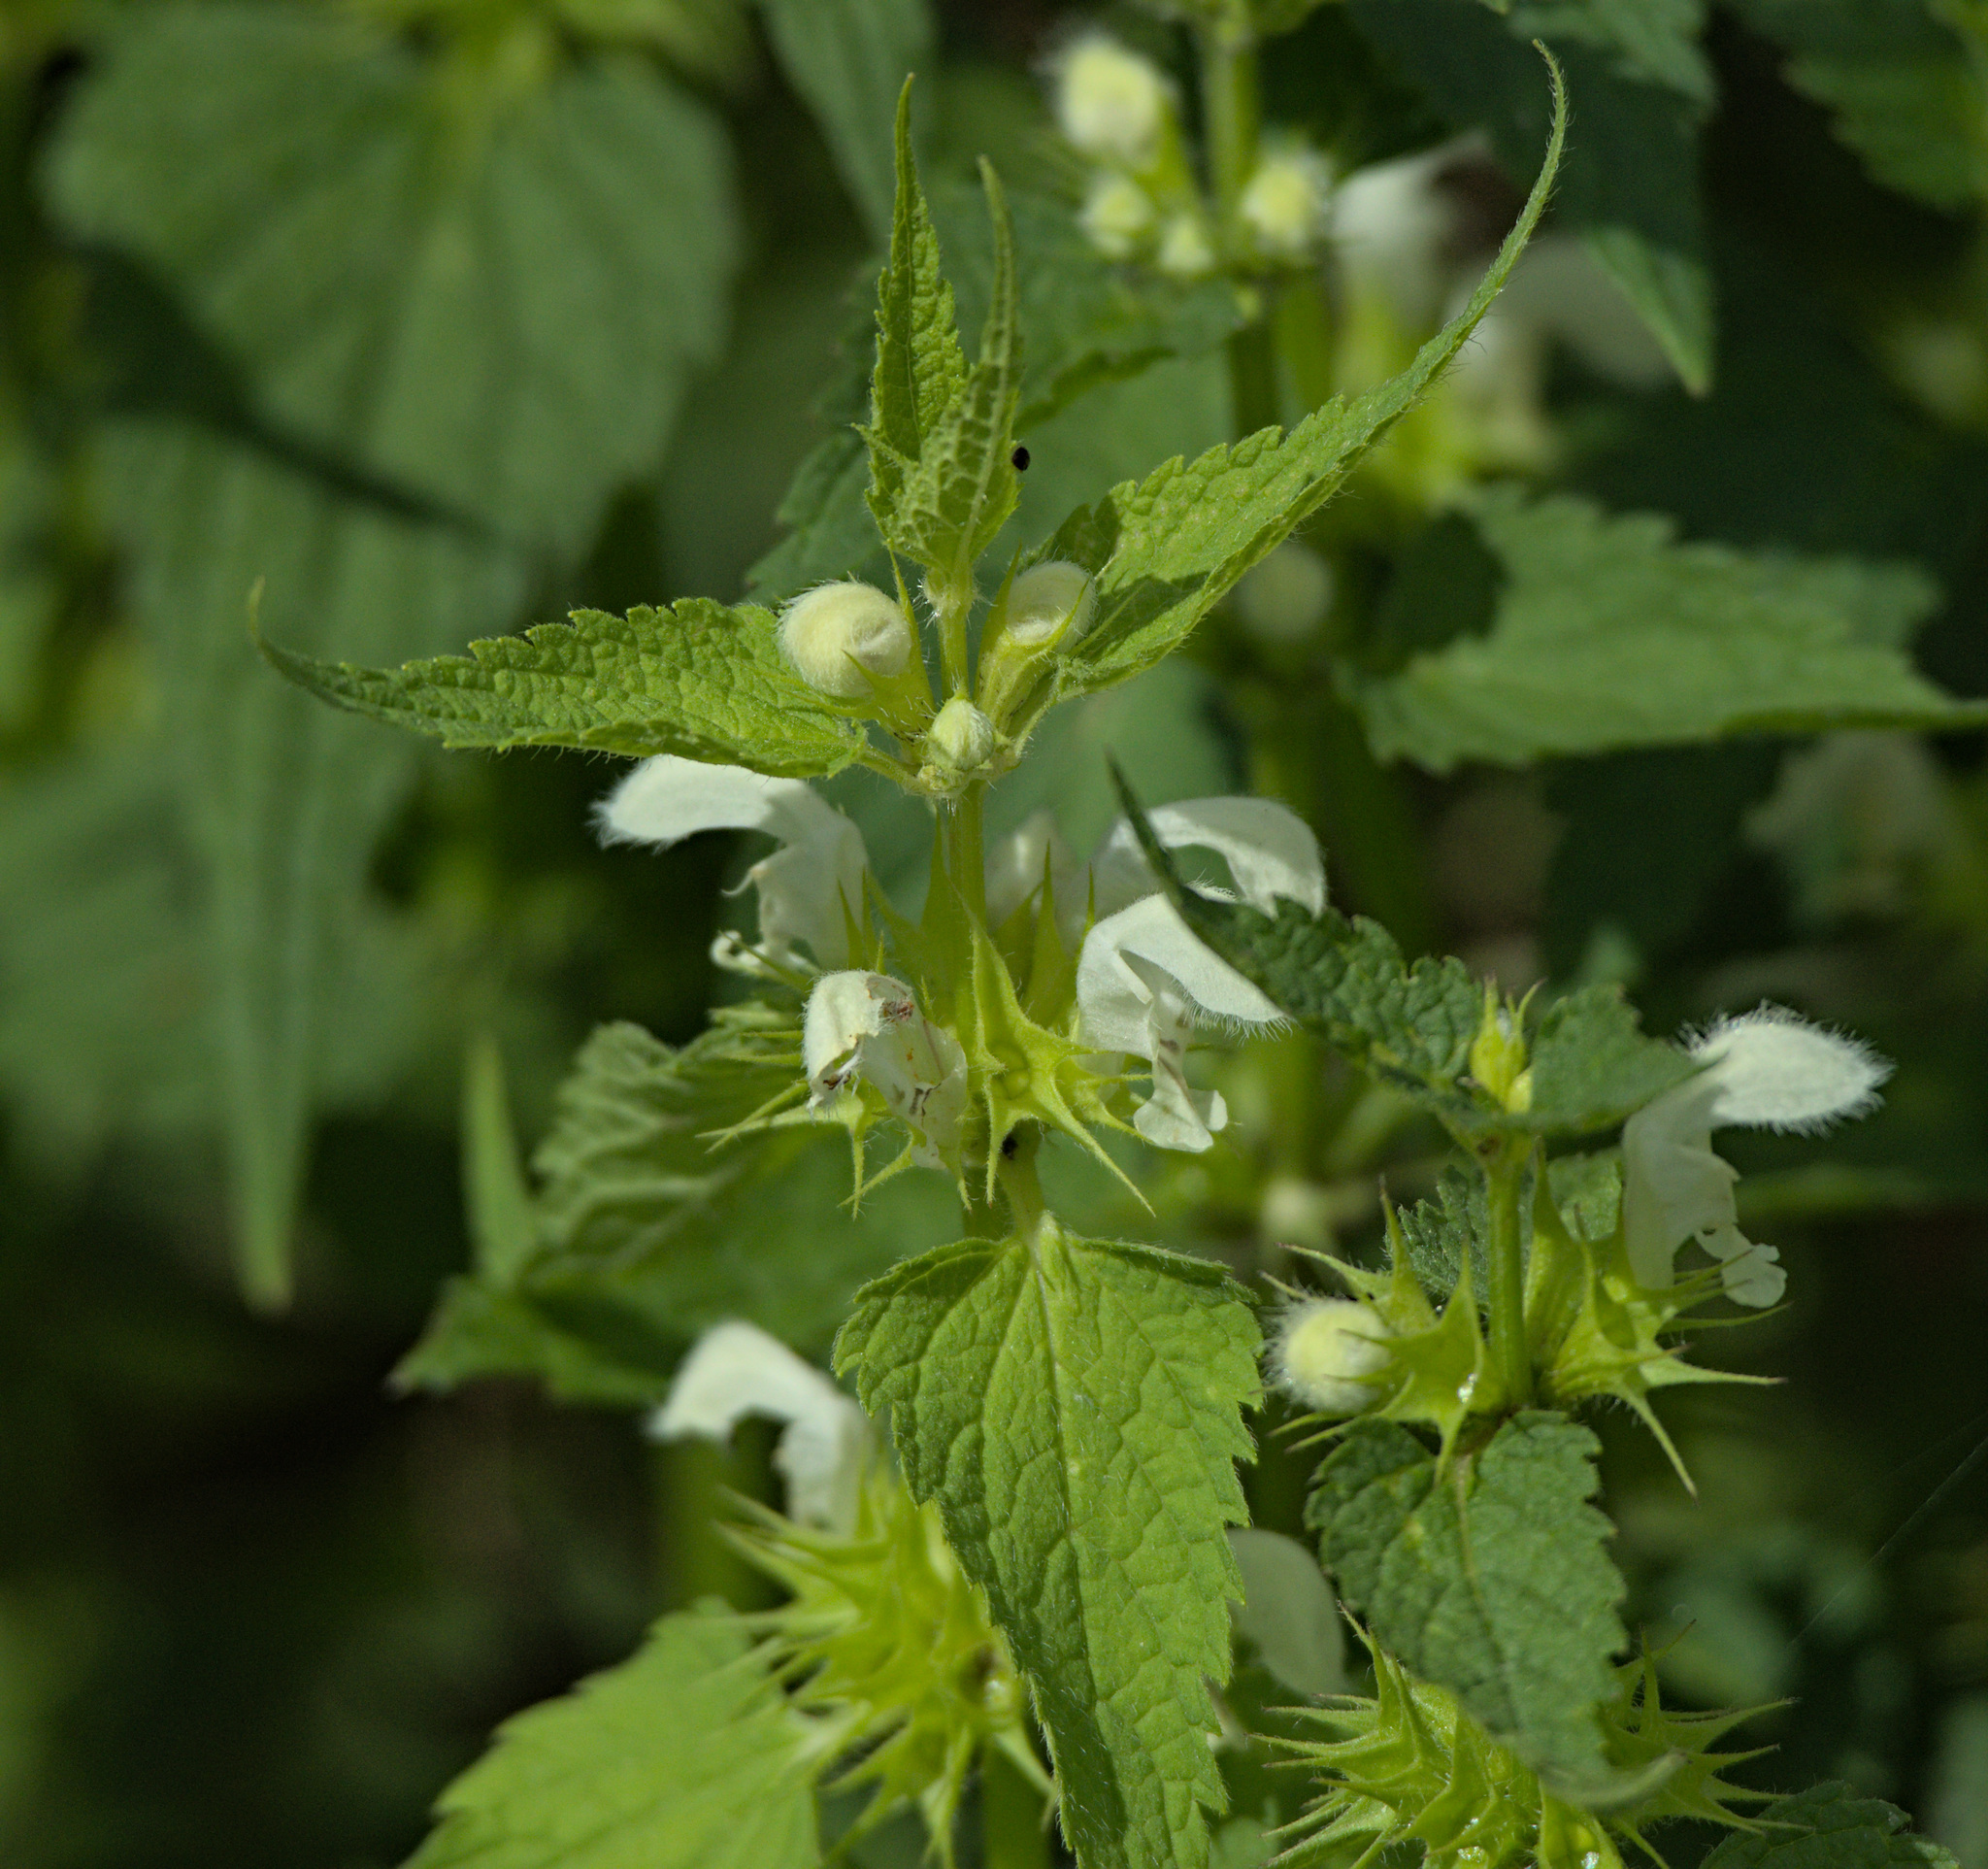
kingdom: Plantae
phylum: Tracheophyta
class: Magnoliopsida
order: Lamiales
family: Lamiaceae
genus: Lamium
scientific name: Lamium album
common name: White dead-nettle
